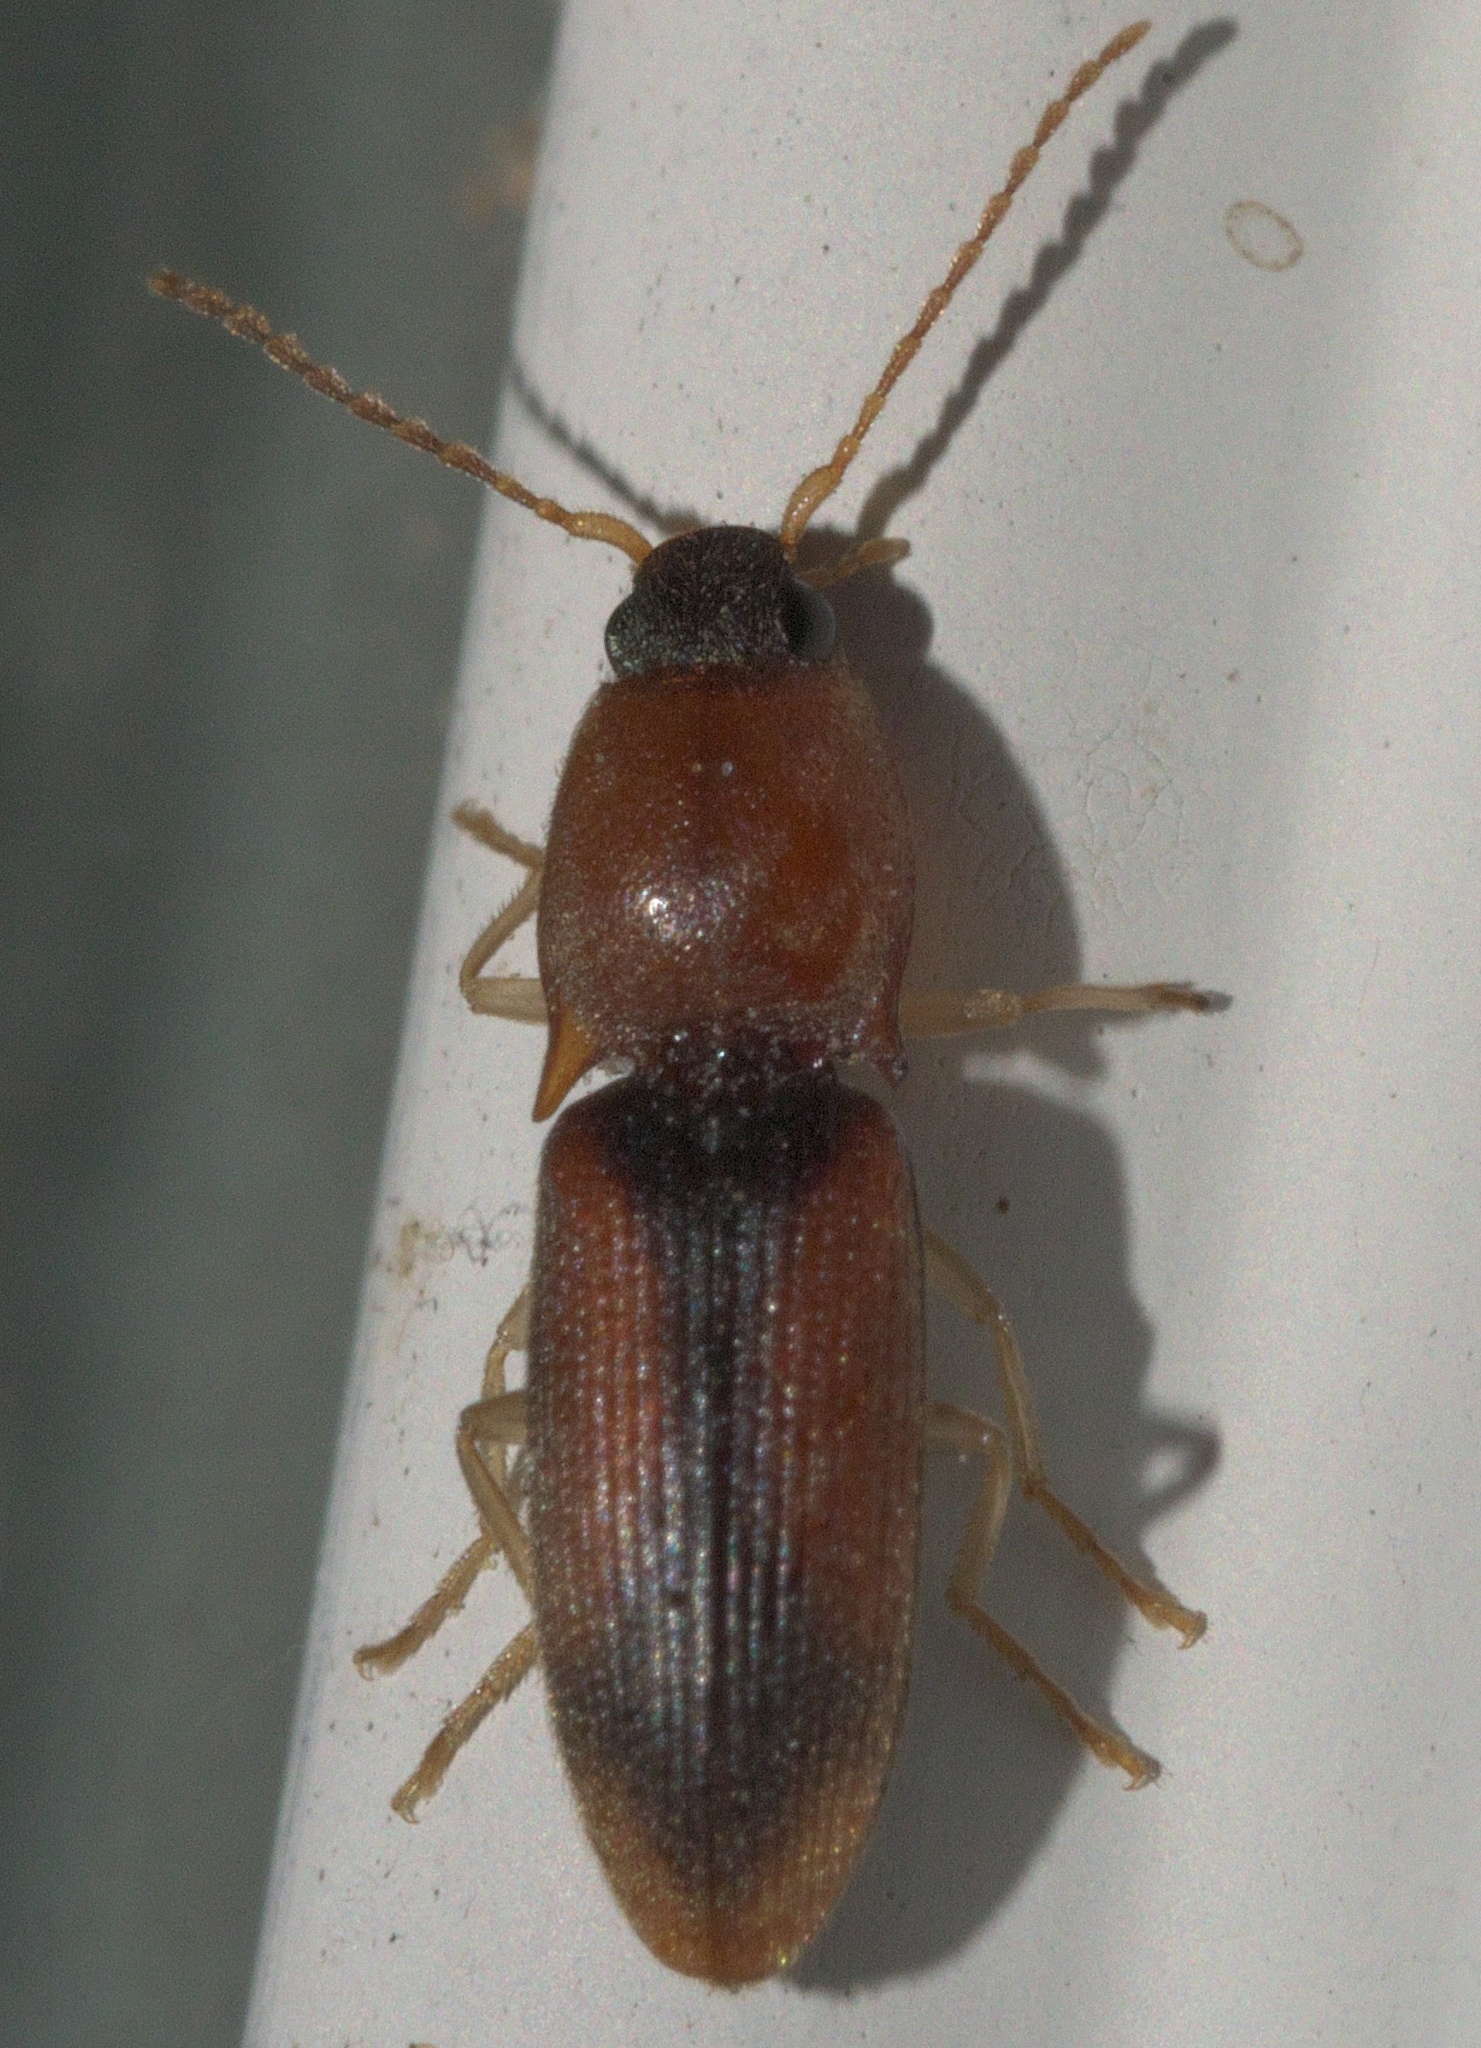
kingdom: Animalia
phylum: Arthropoda
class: Insecta
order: Coleoptera
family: Elateridae
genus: Monocrepidius
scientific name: Monocrepidius
